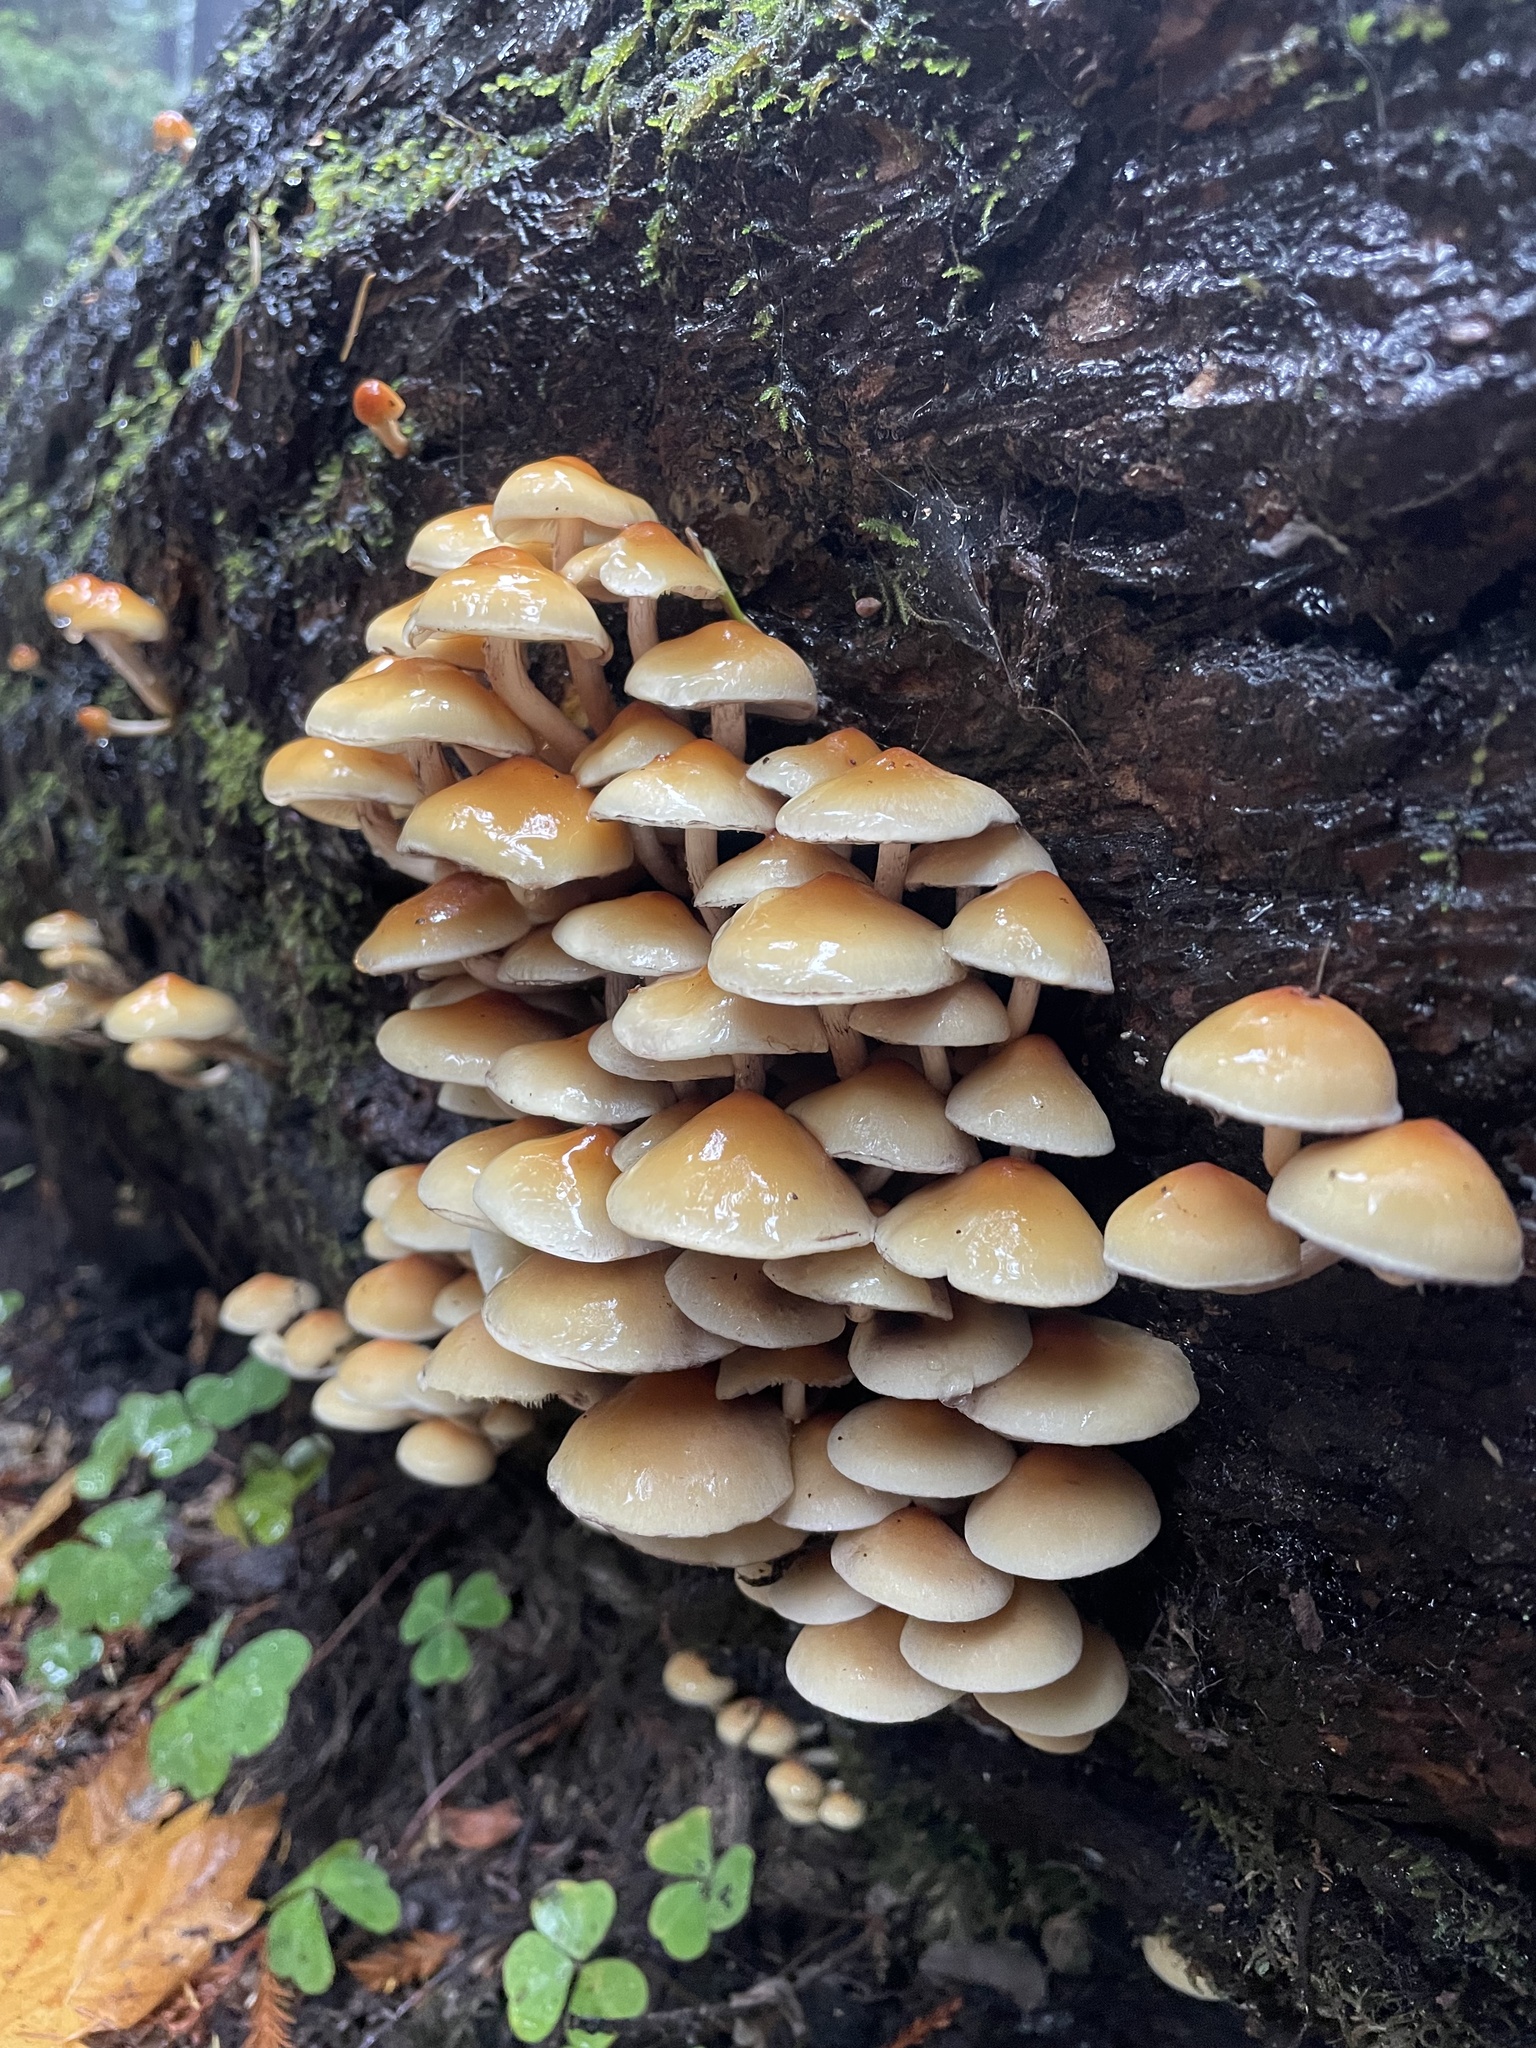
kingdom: Fungi
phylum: Basidiomycota
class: Agaricomycetes
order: Agaricales
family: Strophariaceae
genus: Hypholoma
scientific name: Hypholoma capnoides
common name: Conifer tuft
